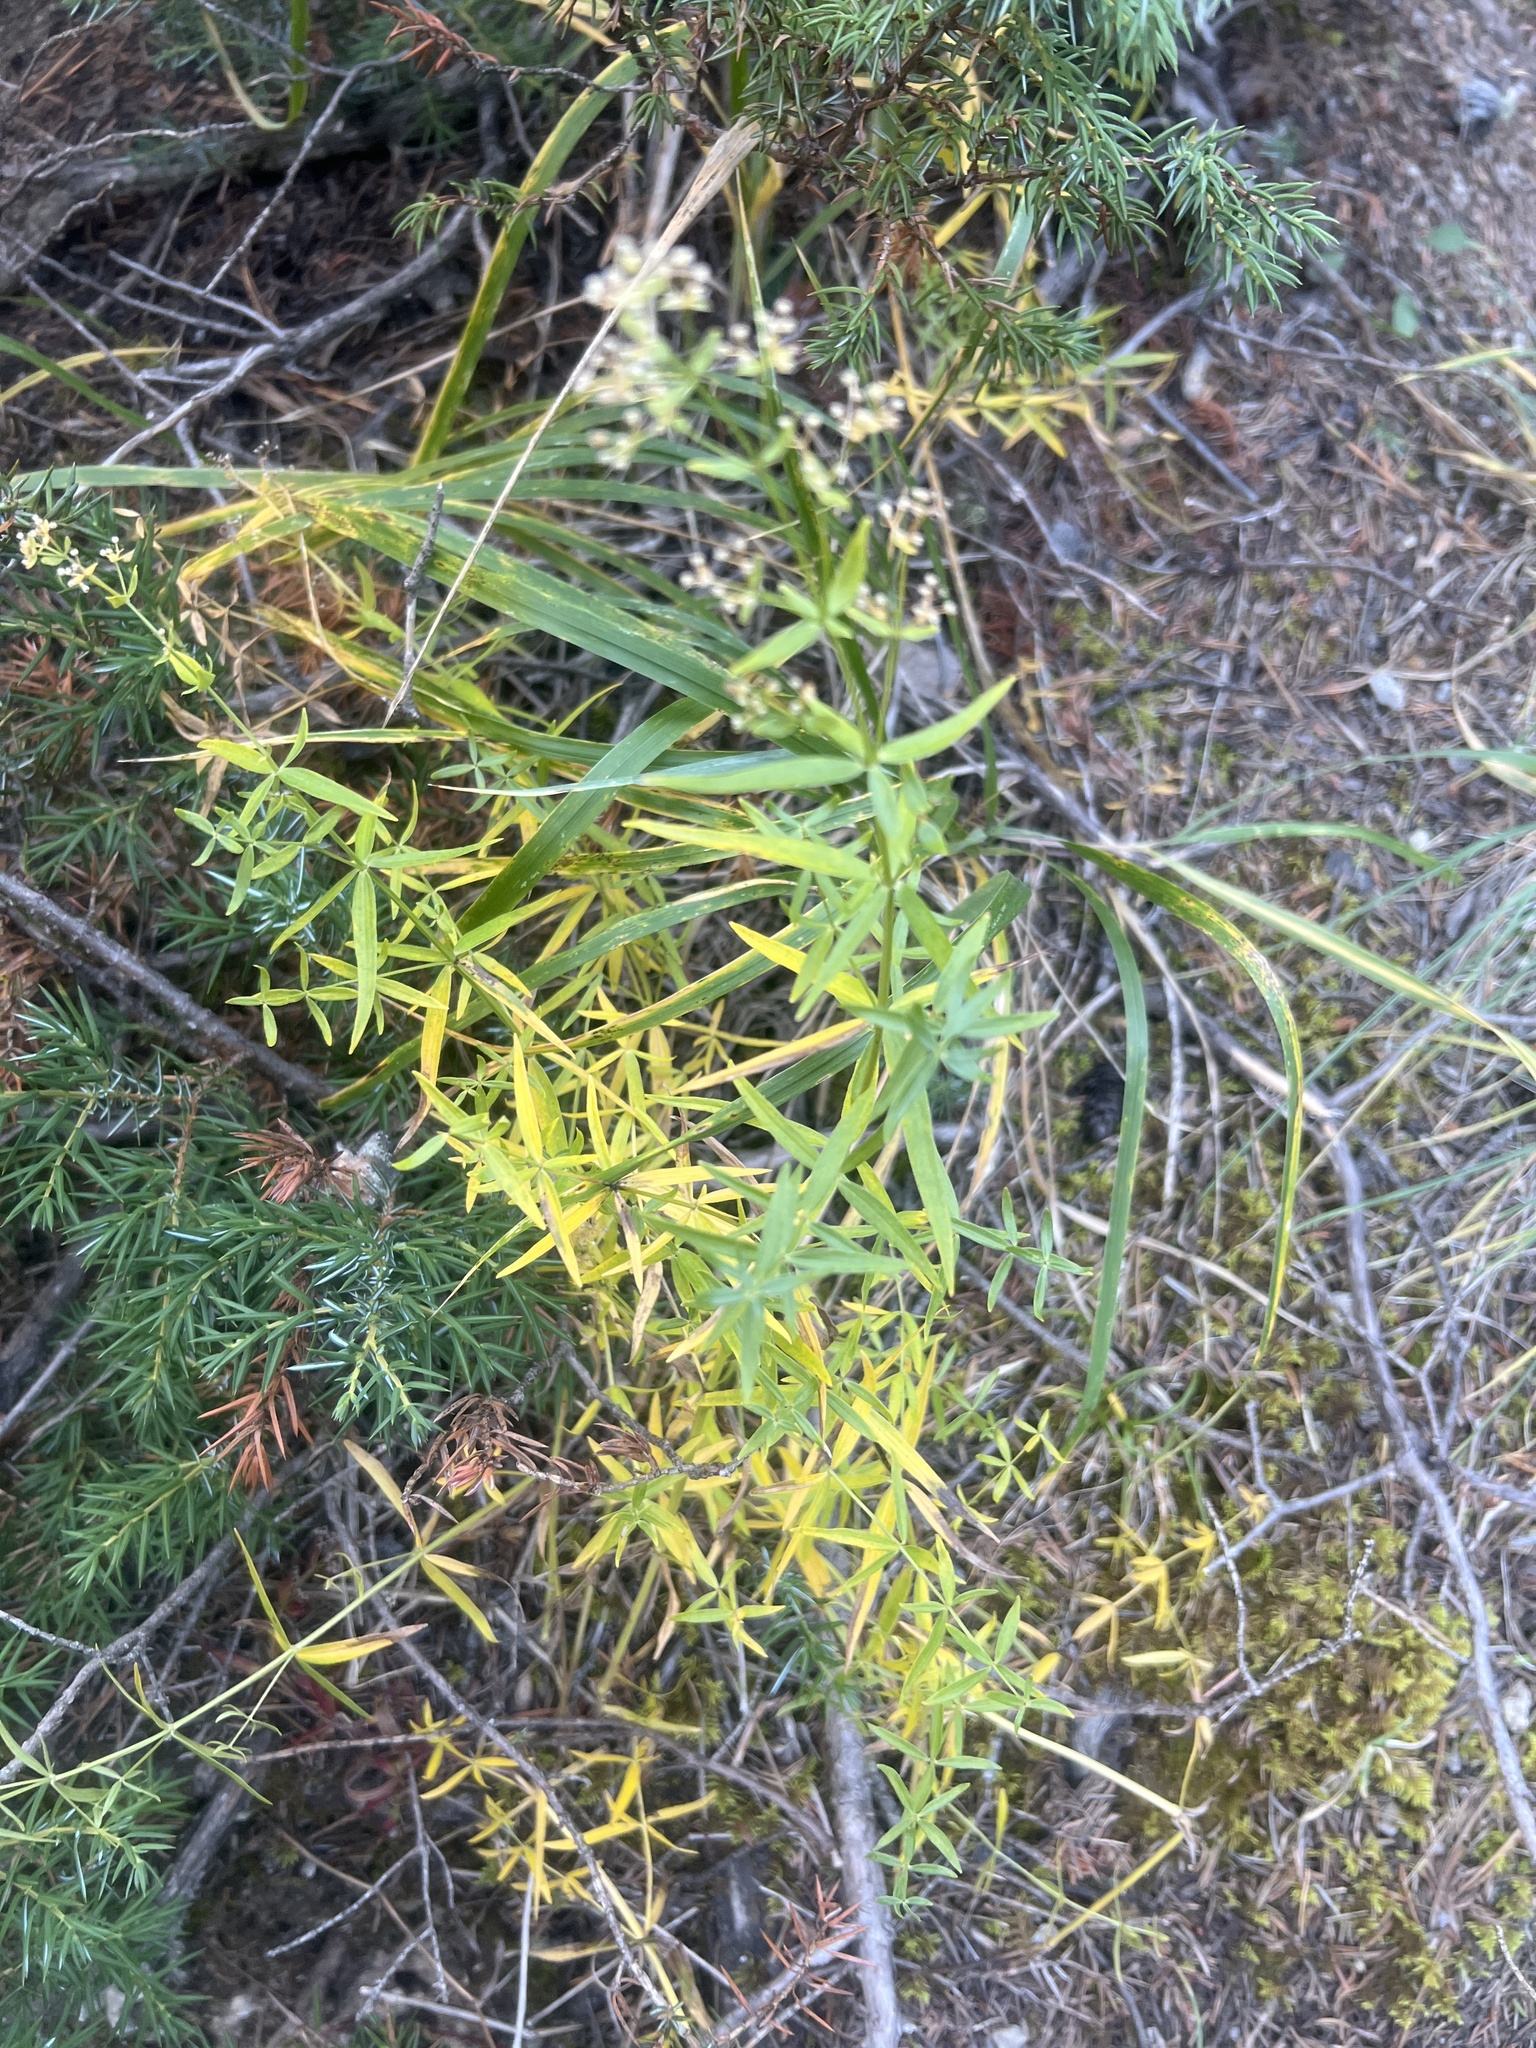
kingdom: Plantae
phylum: Tracheophyta
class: Magnoliopsida
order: Gentianales
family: Rubiaceae
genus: Galium
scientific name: Galium boreale
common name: Northern bedstraw
